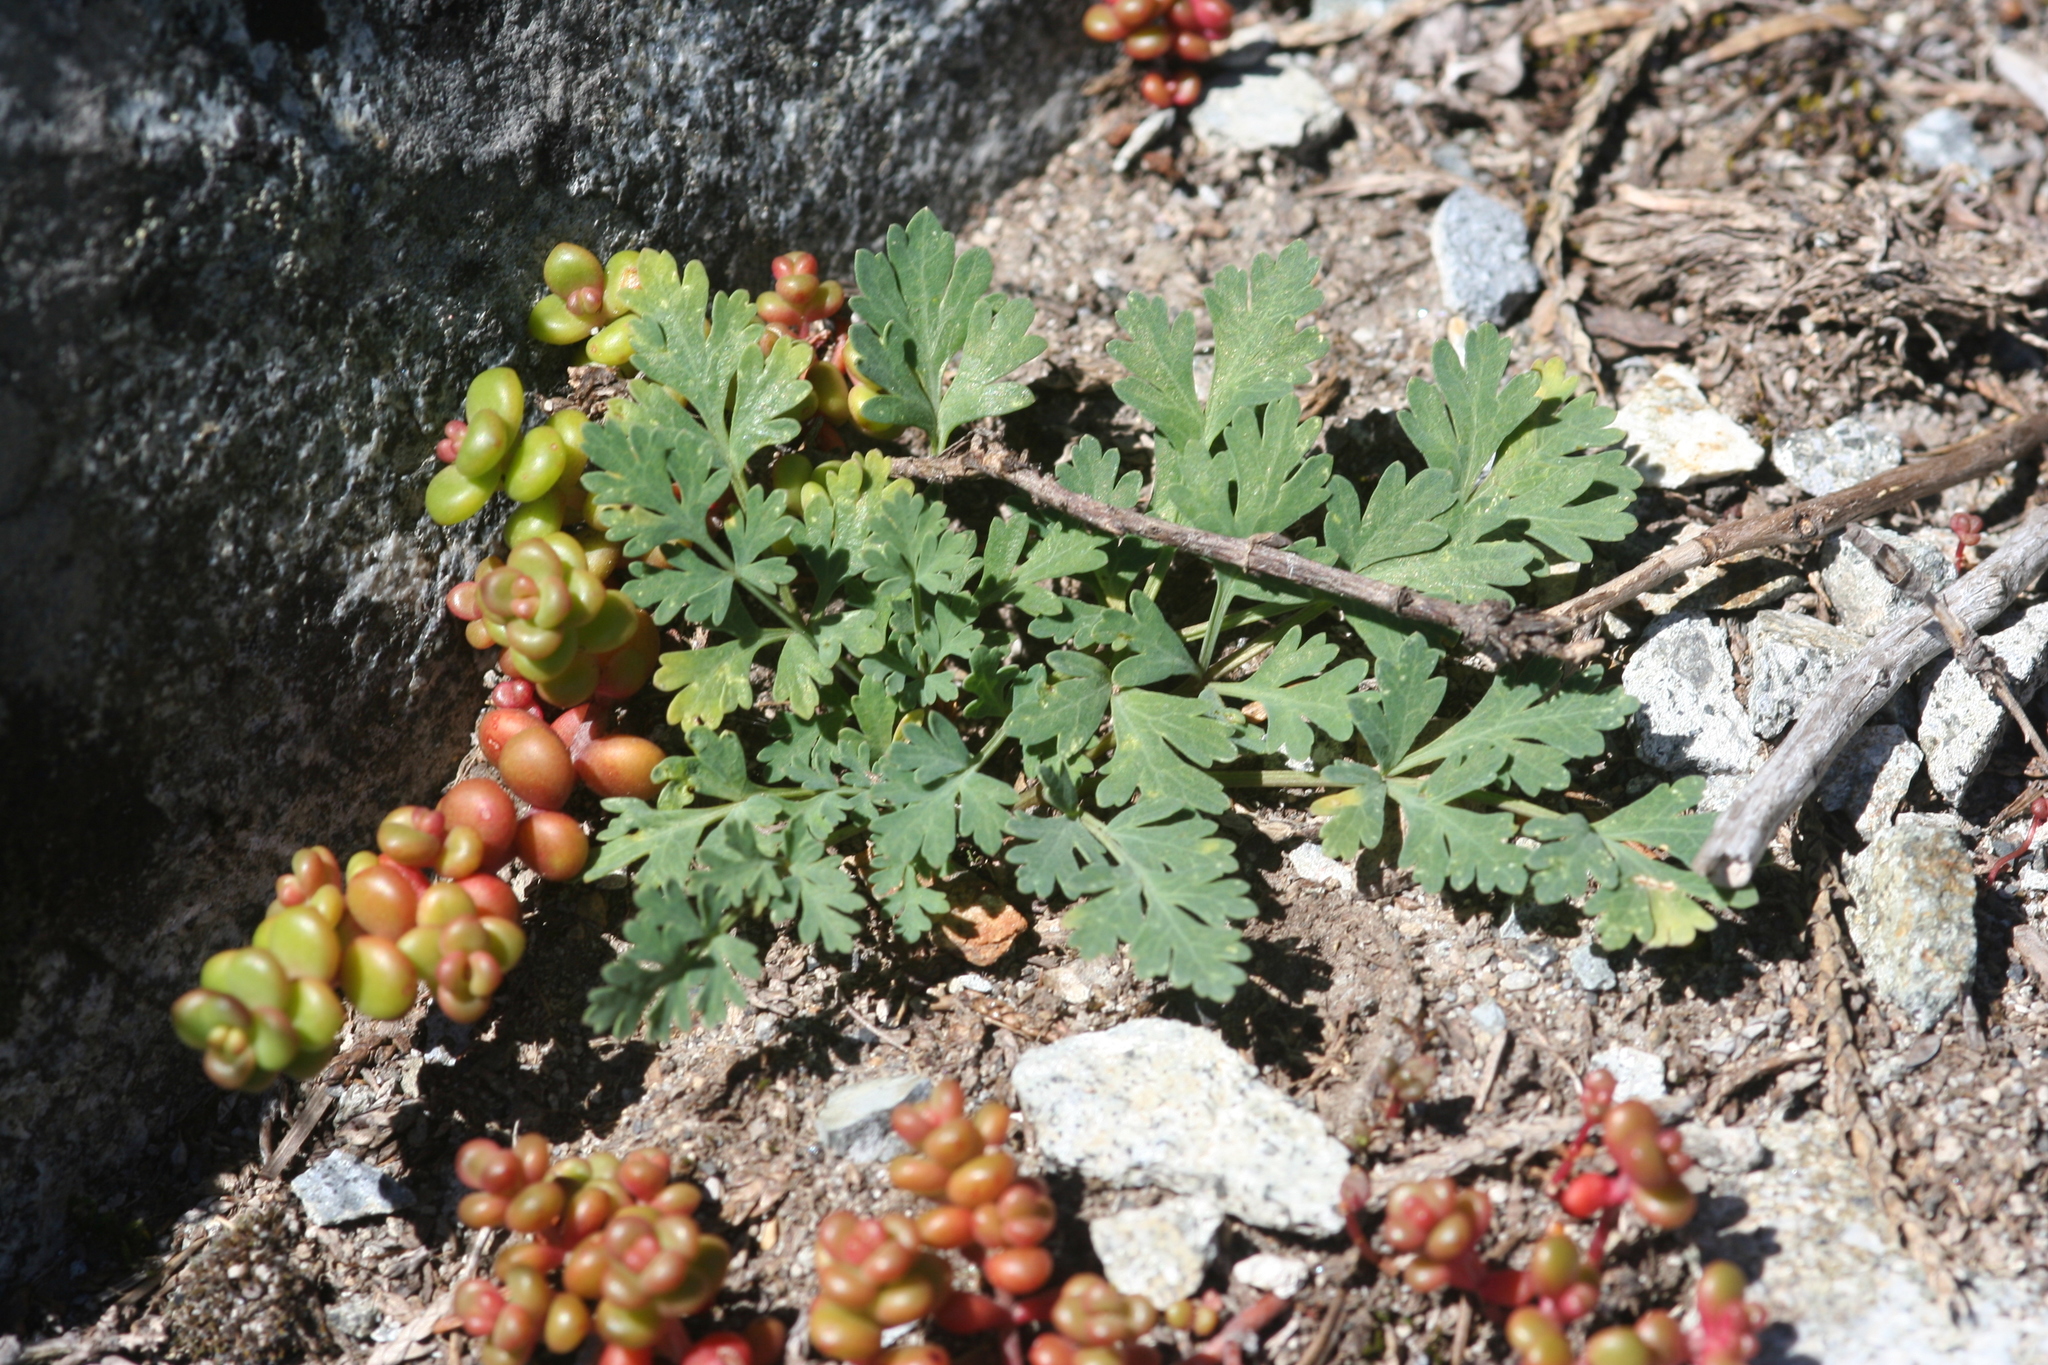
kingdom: Plantae
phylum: Tracheophyta
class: Magnoliopsida
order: Apiales
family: Apiaceae
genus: Lomatium
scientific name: Lomatium martindalei
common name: Cascade desert-parsley
